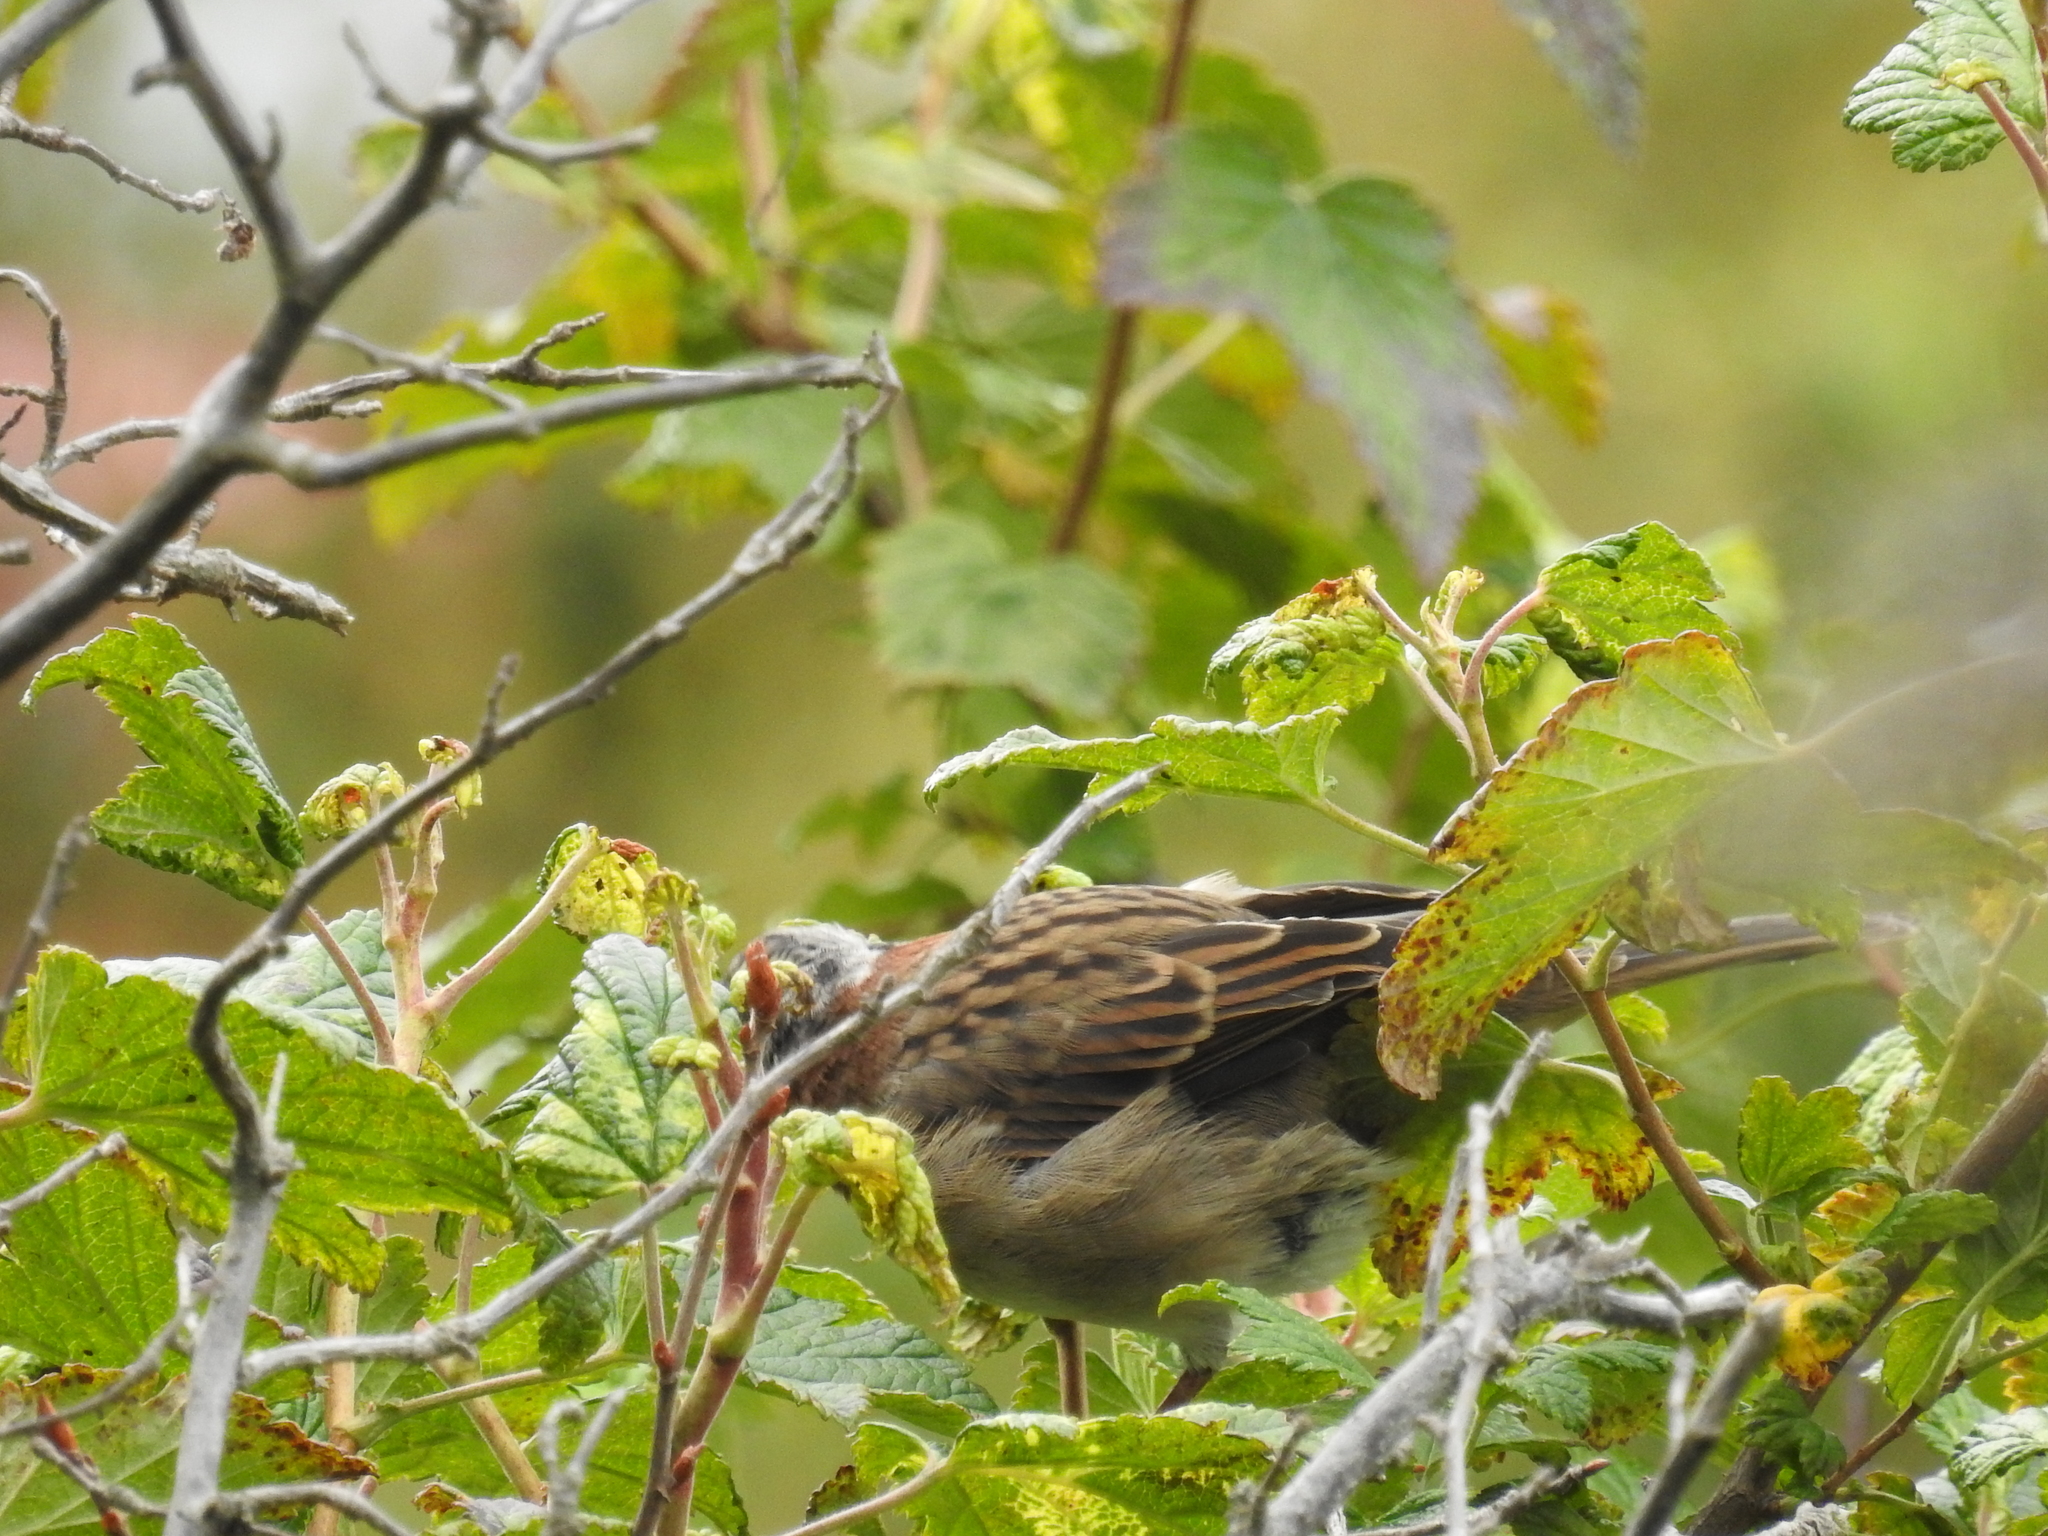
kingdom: Animalia
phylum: Chordata
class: Aves
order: Passeriformes
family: Passerellidae
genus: Zonotrichia
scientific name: Zonotrichia capensis
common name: Rufous-collared sparrow
